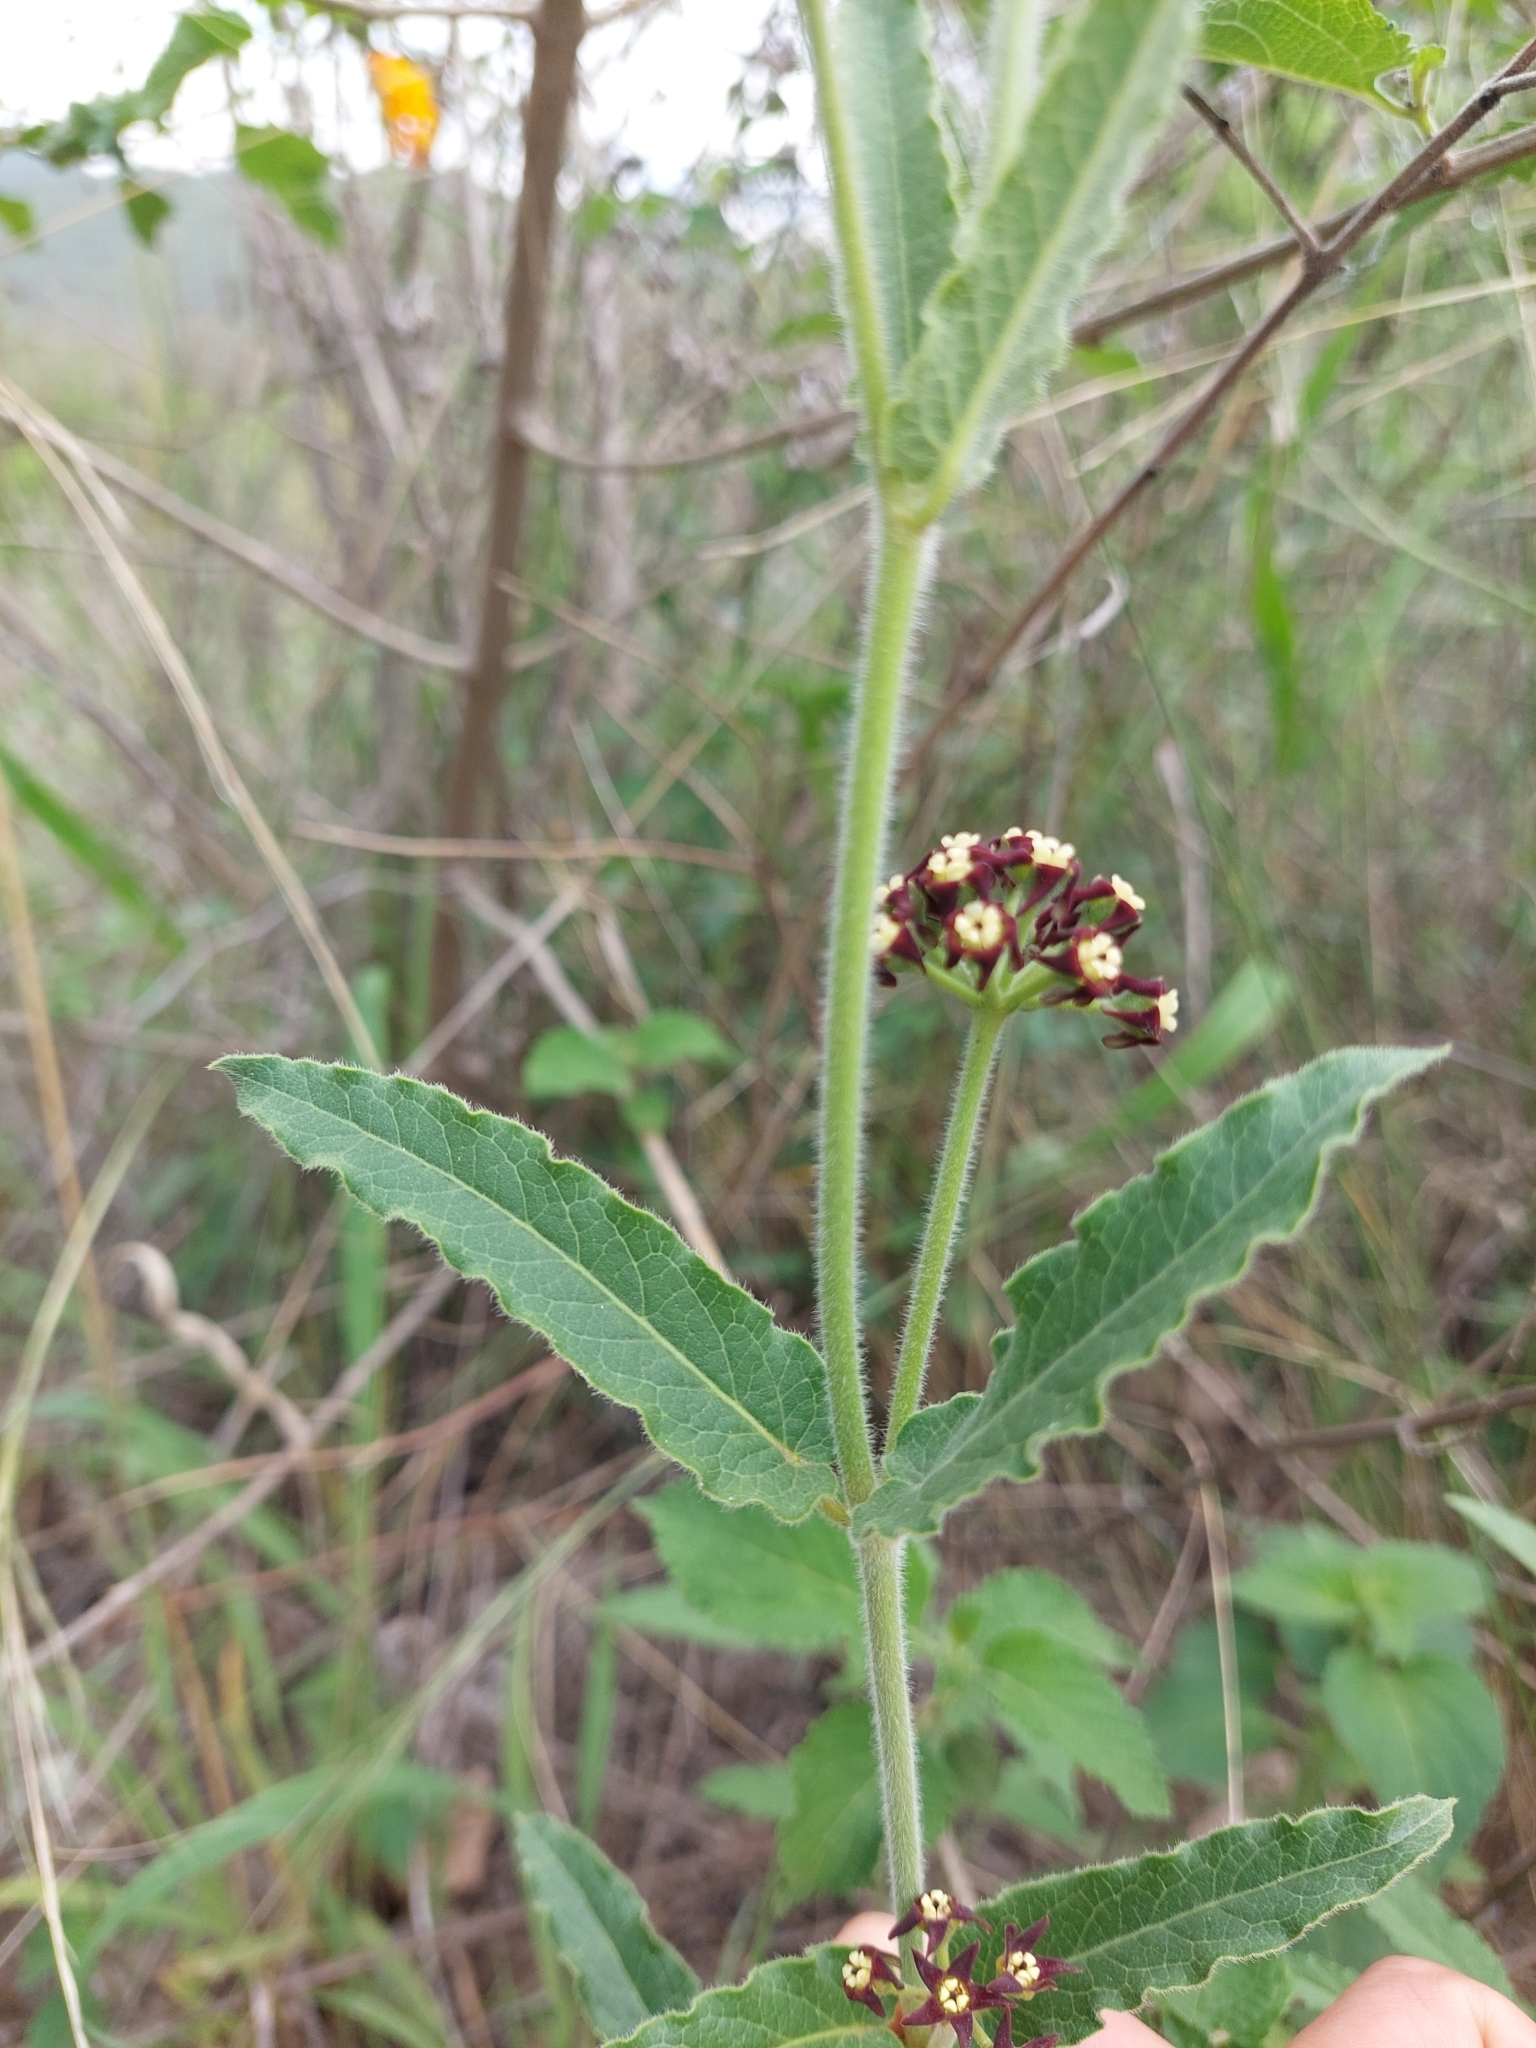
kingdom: Plantae
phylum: Tracheophyta
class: Magnoliopsida
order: Gentianales
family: Apocynaceae
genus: Oxypetalum
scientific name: Oxypetalum arnottianum
